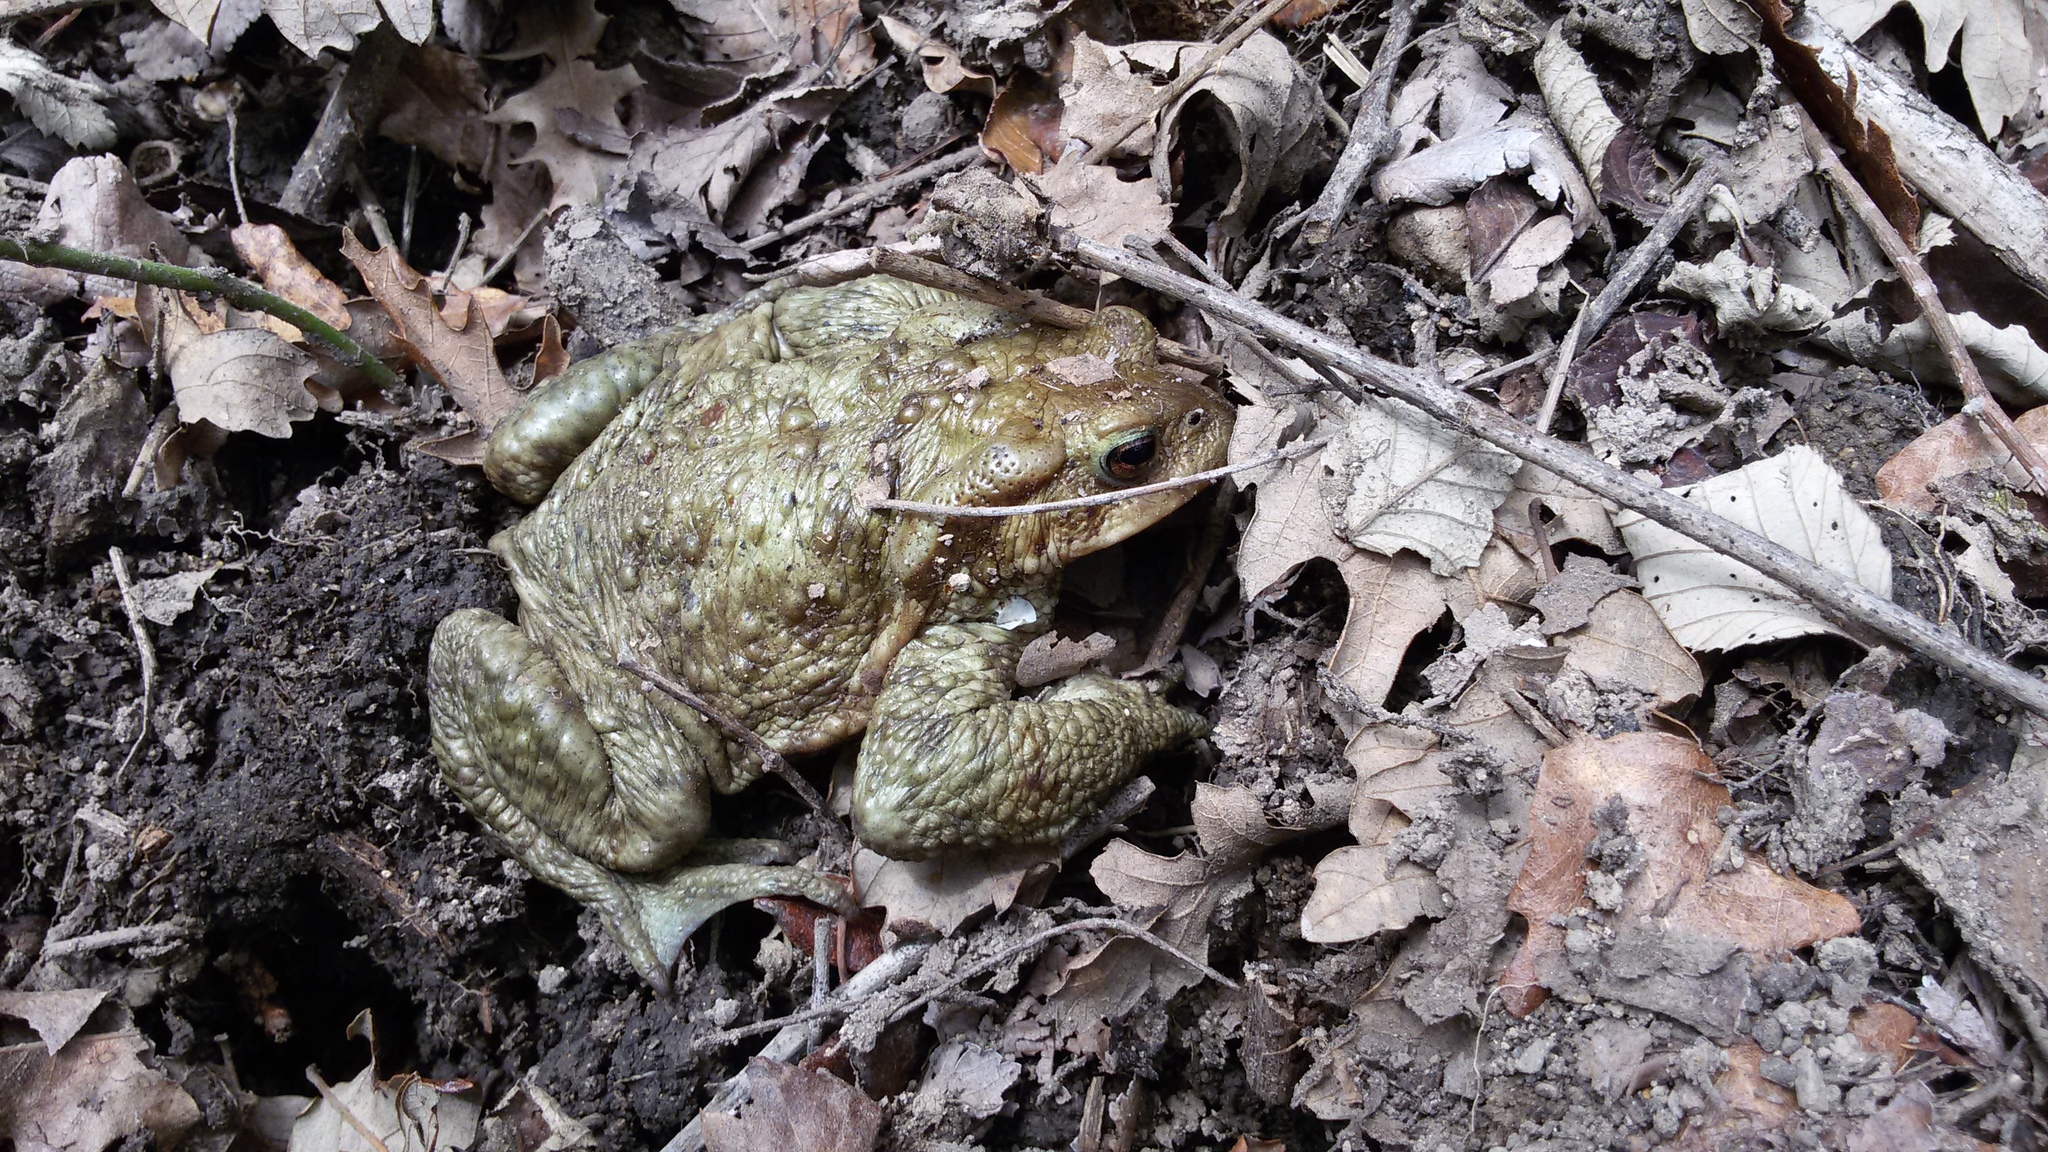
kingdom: Animalia
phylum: Chordata
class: Amphibia
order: Anura
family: Bufonidae
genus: Bufo
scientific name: Bufo bufo
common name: Common toad
